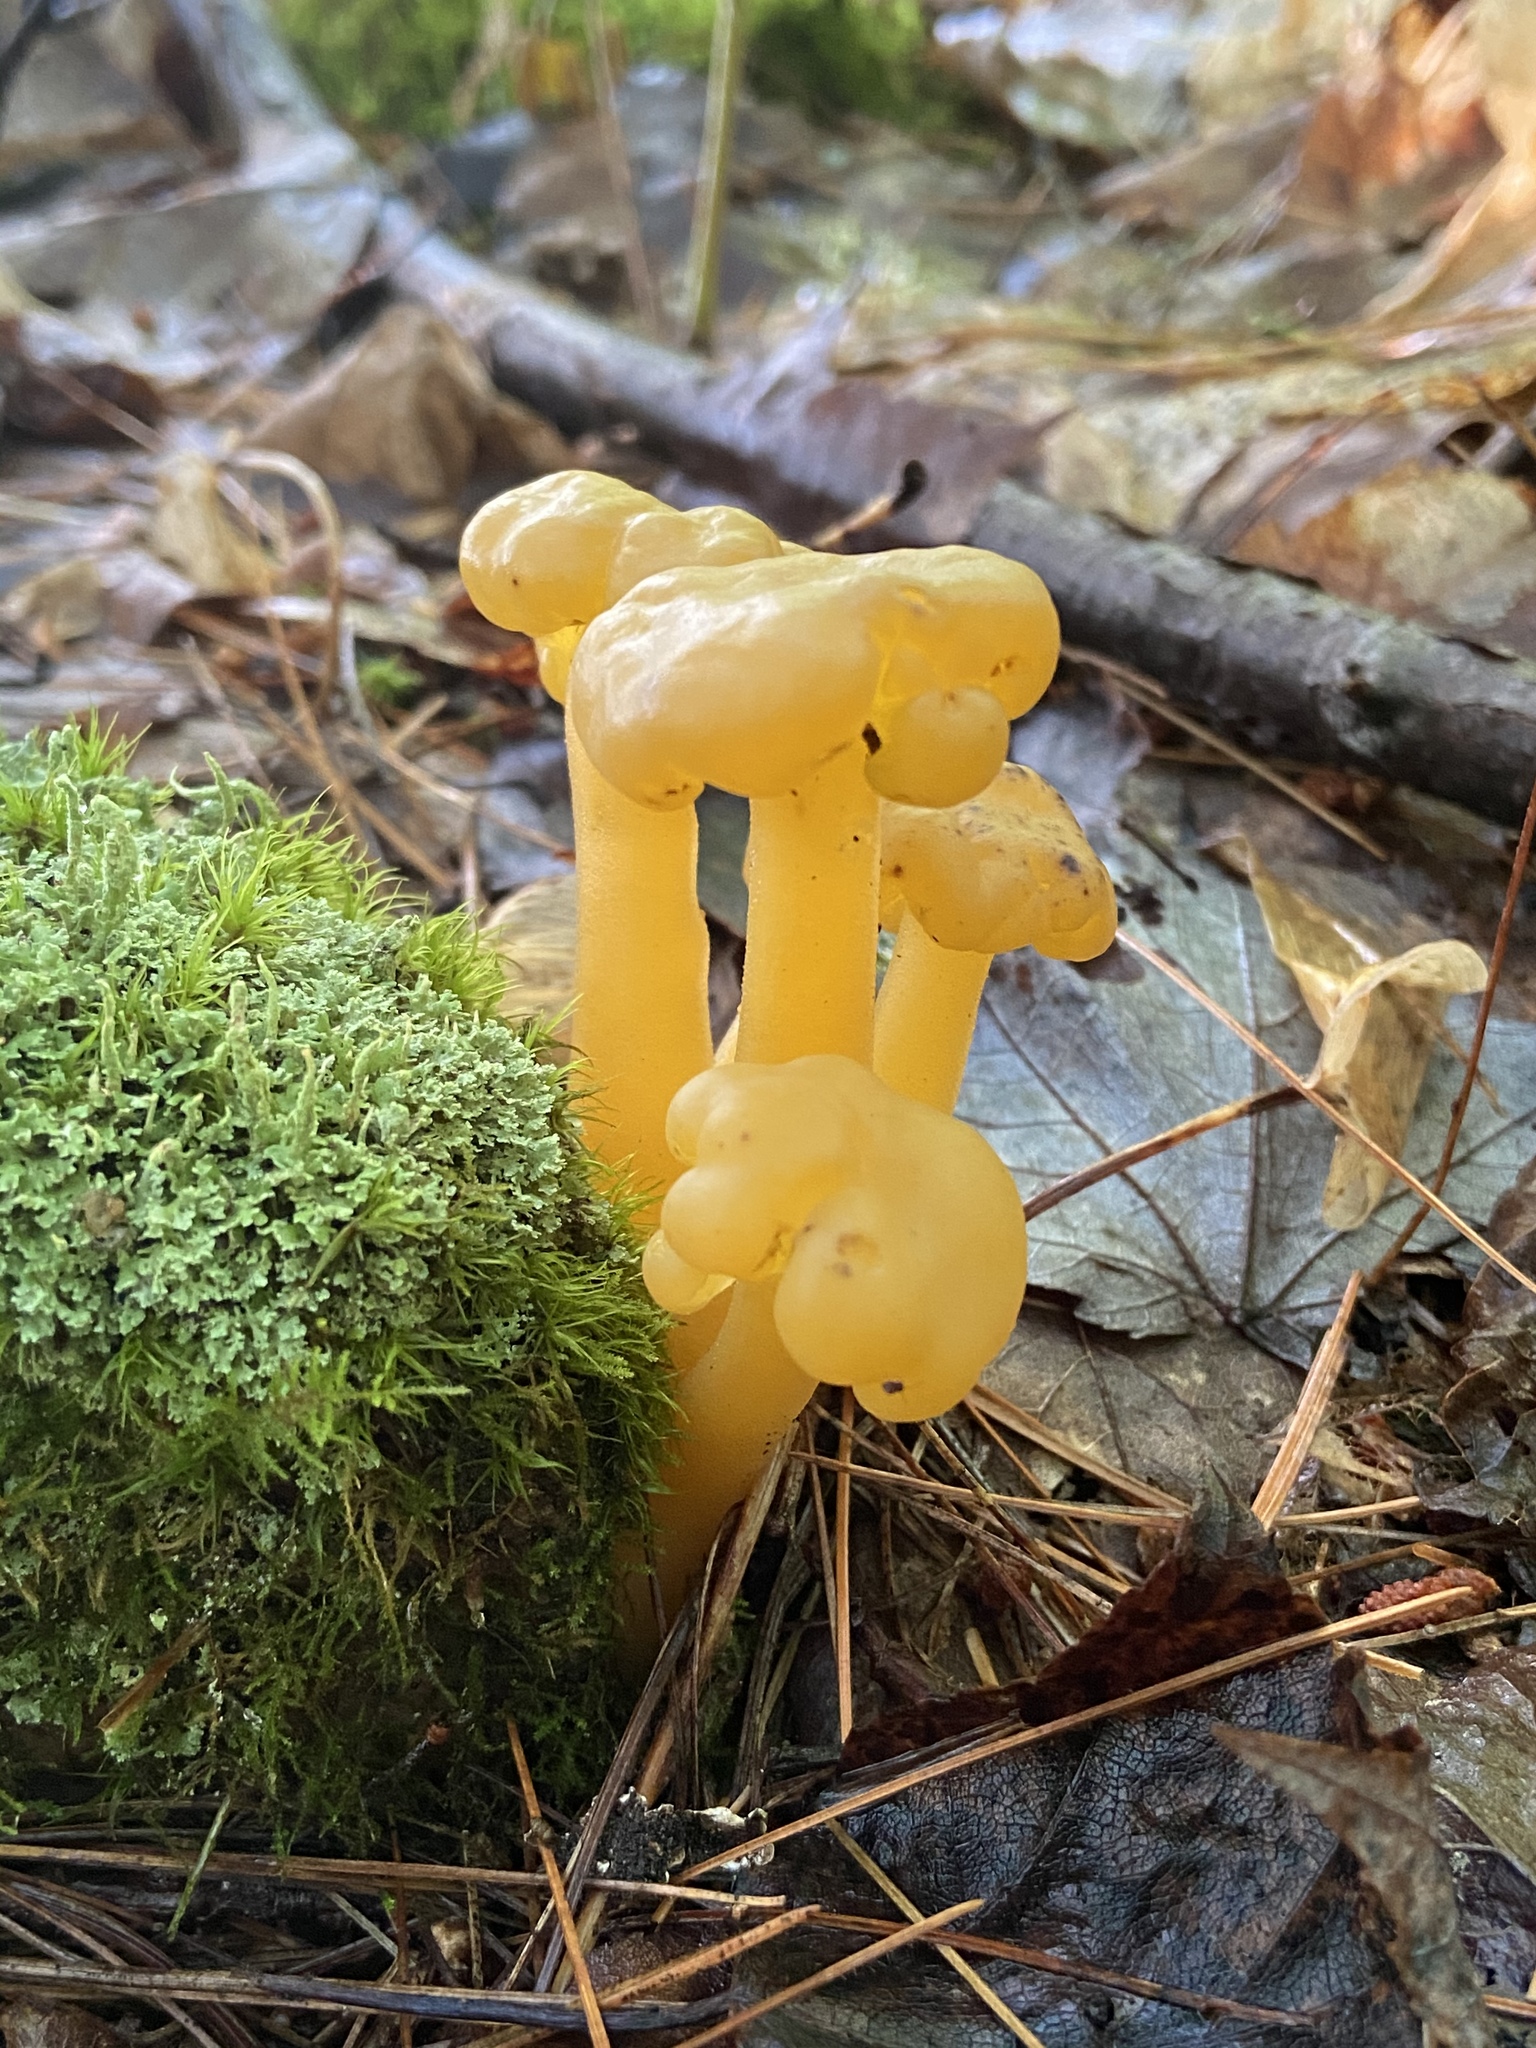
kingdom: Fungi
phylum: Ascomycota
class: Leotiomycetes
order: Leotiales
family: Leotiaceae
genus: Leotia
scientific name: Leotia lubrica
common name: Jellybaby
